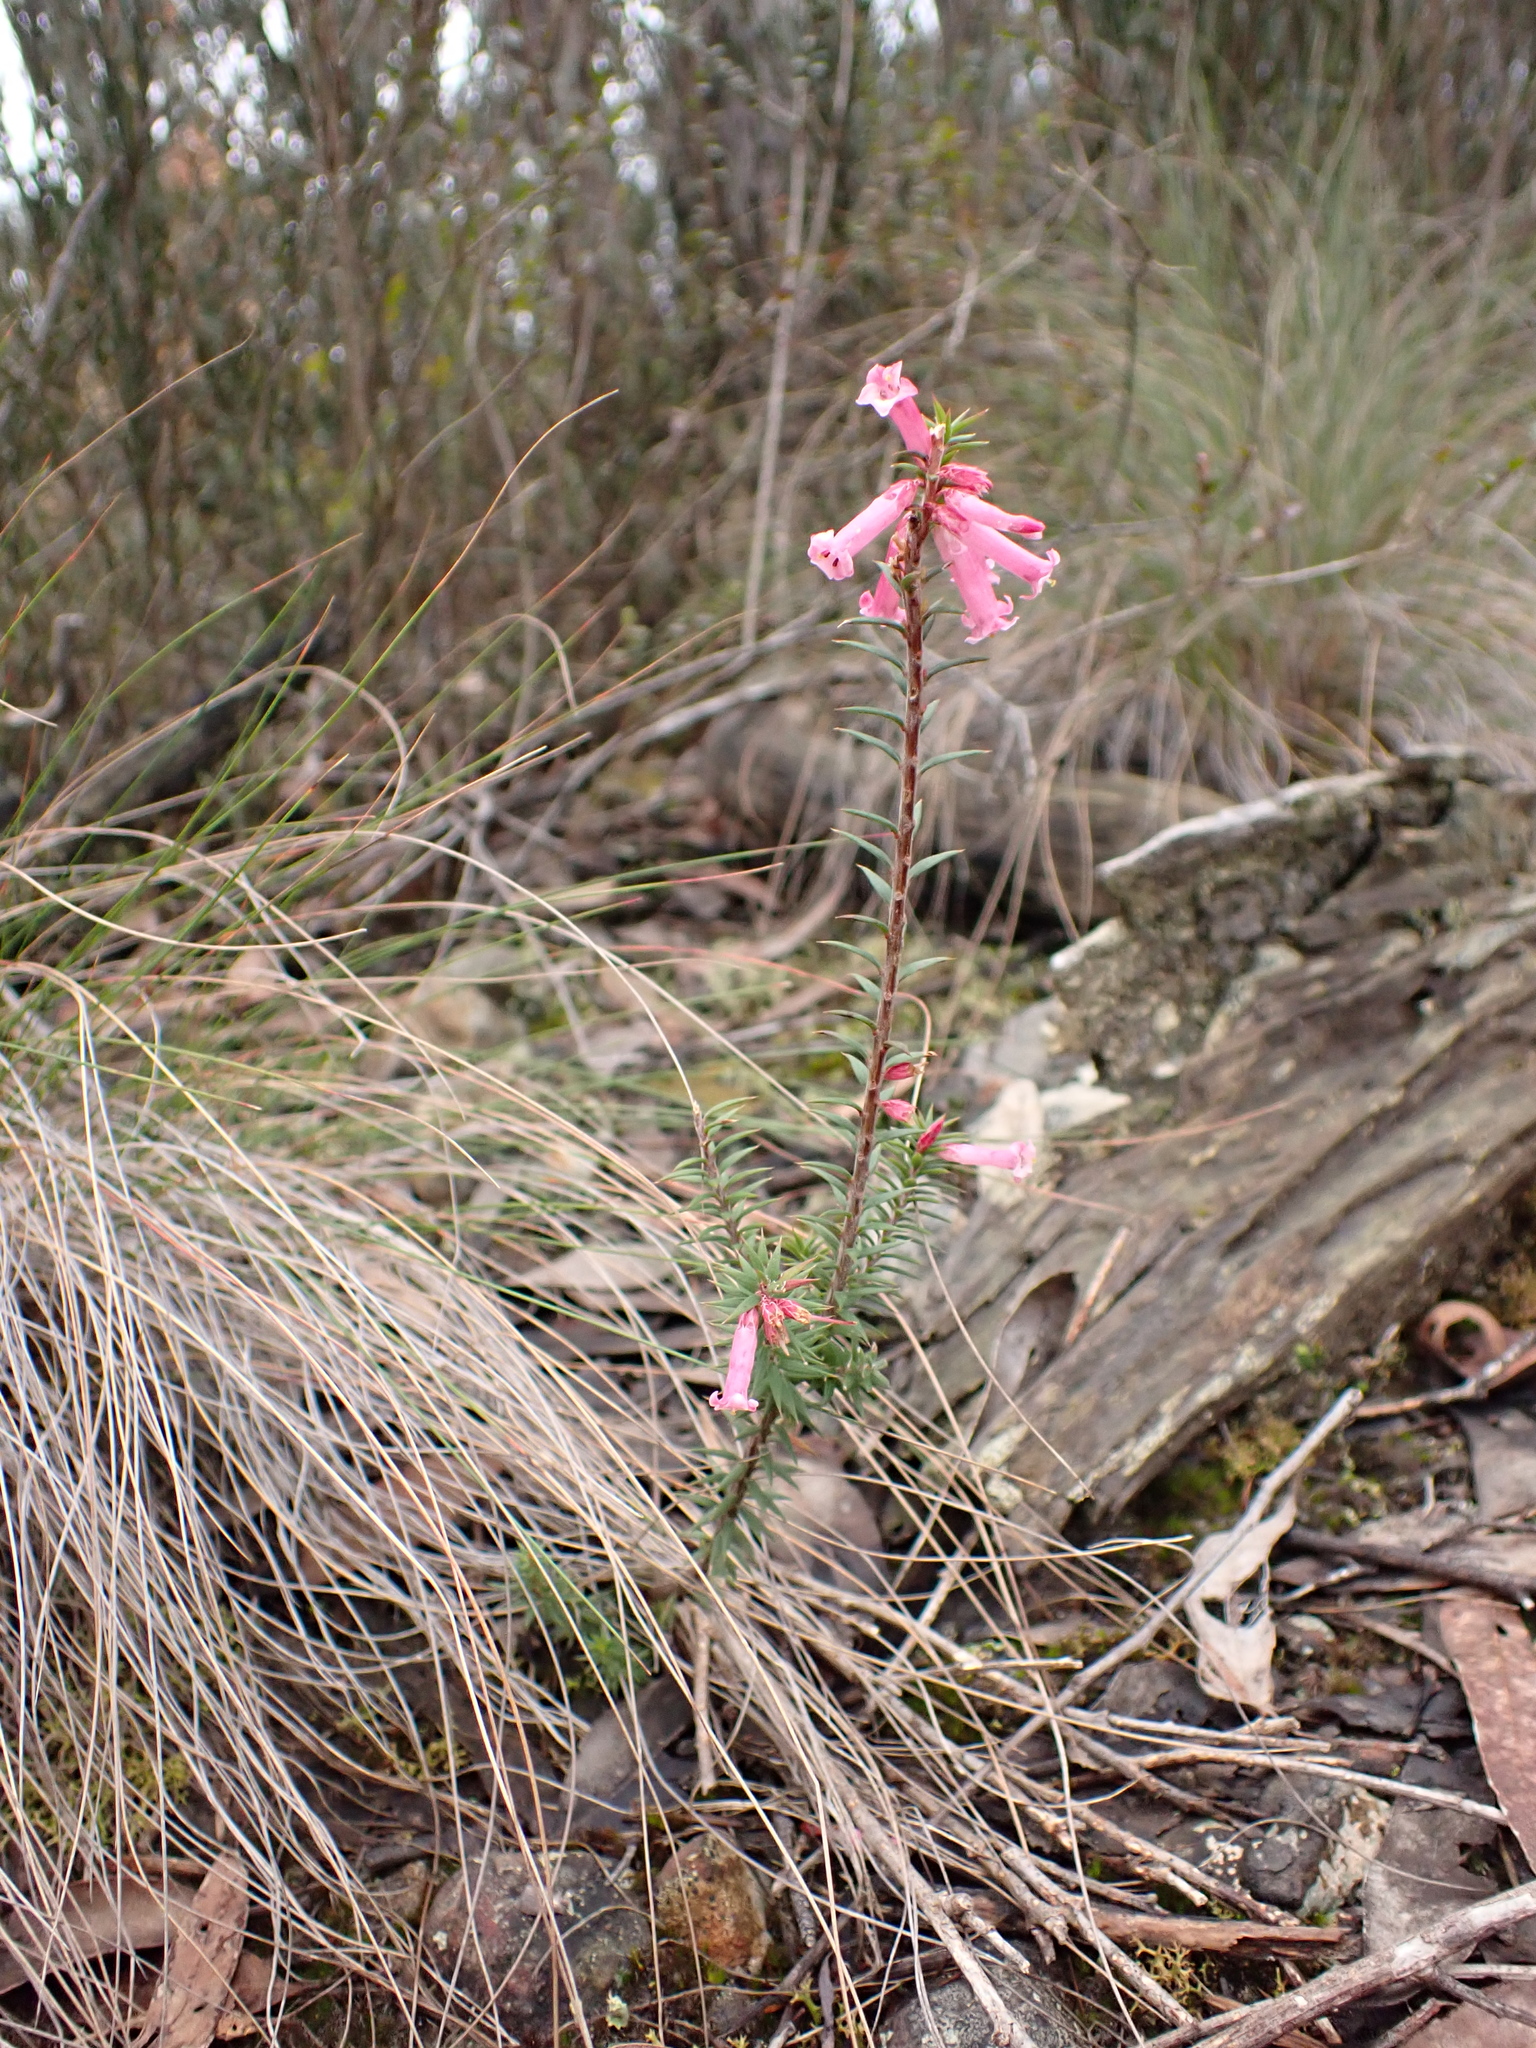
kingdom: Plantae
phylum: Tracheophyta
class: Magnoliopsida
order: Ericales
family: Ericaceae
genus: Epacris
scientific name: Epacris impressa
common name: Common-heath
